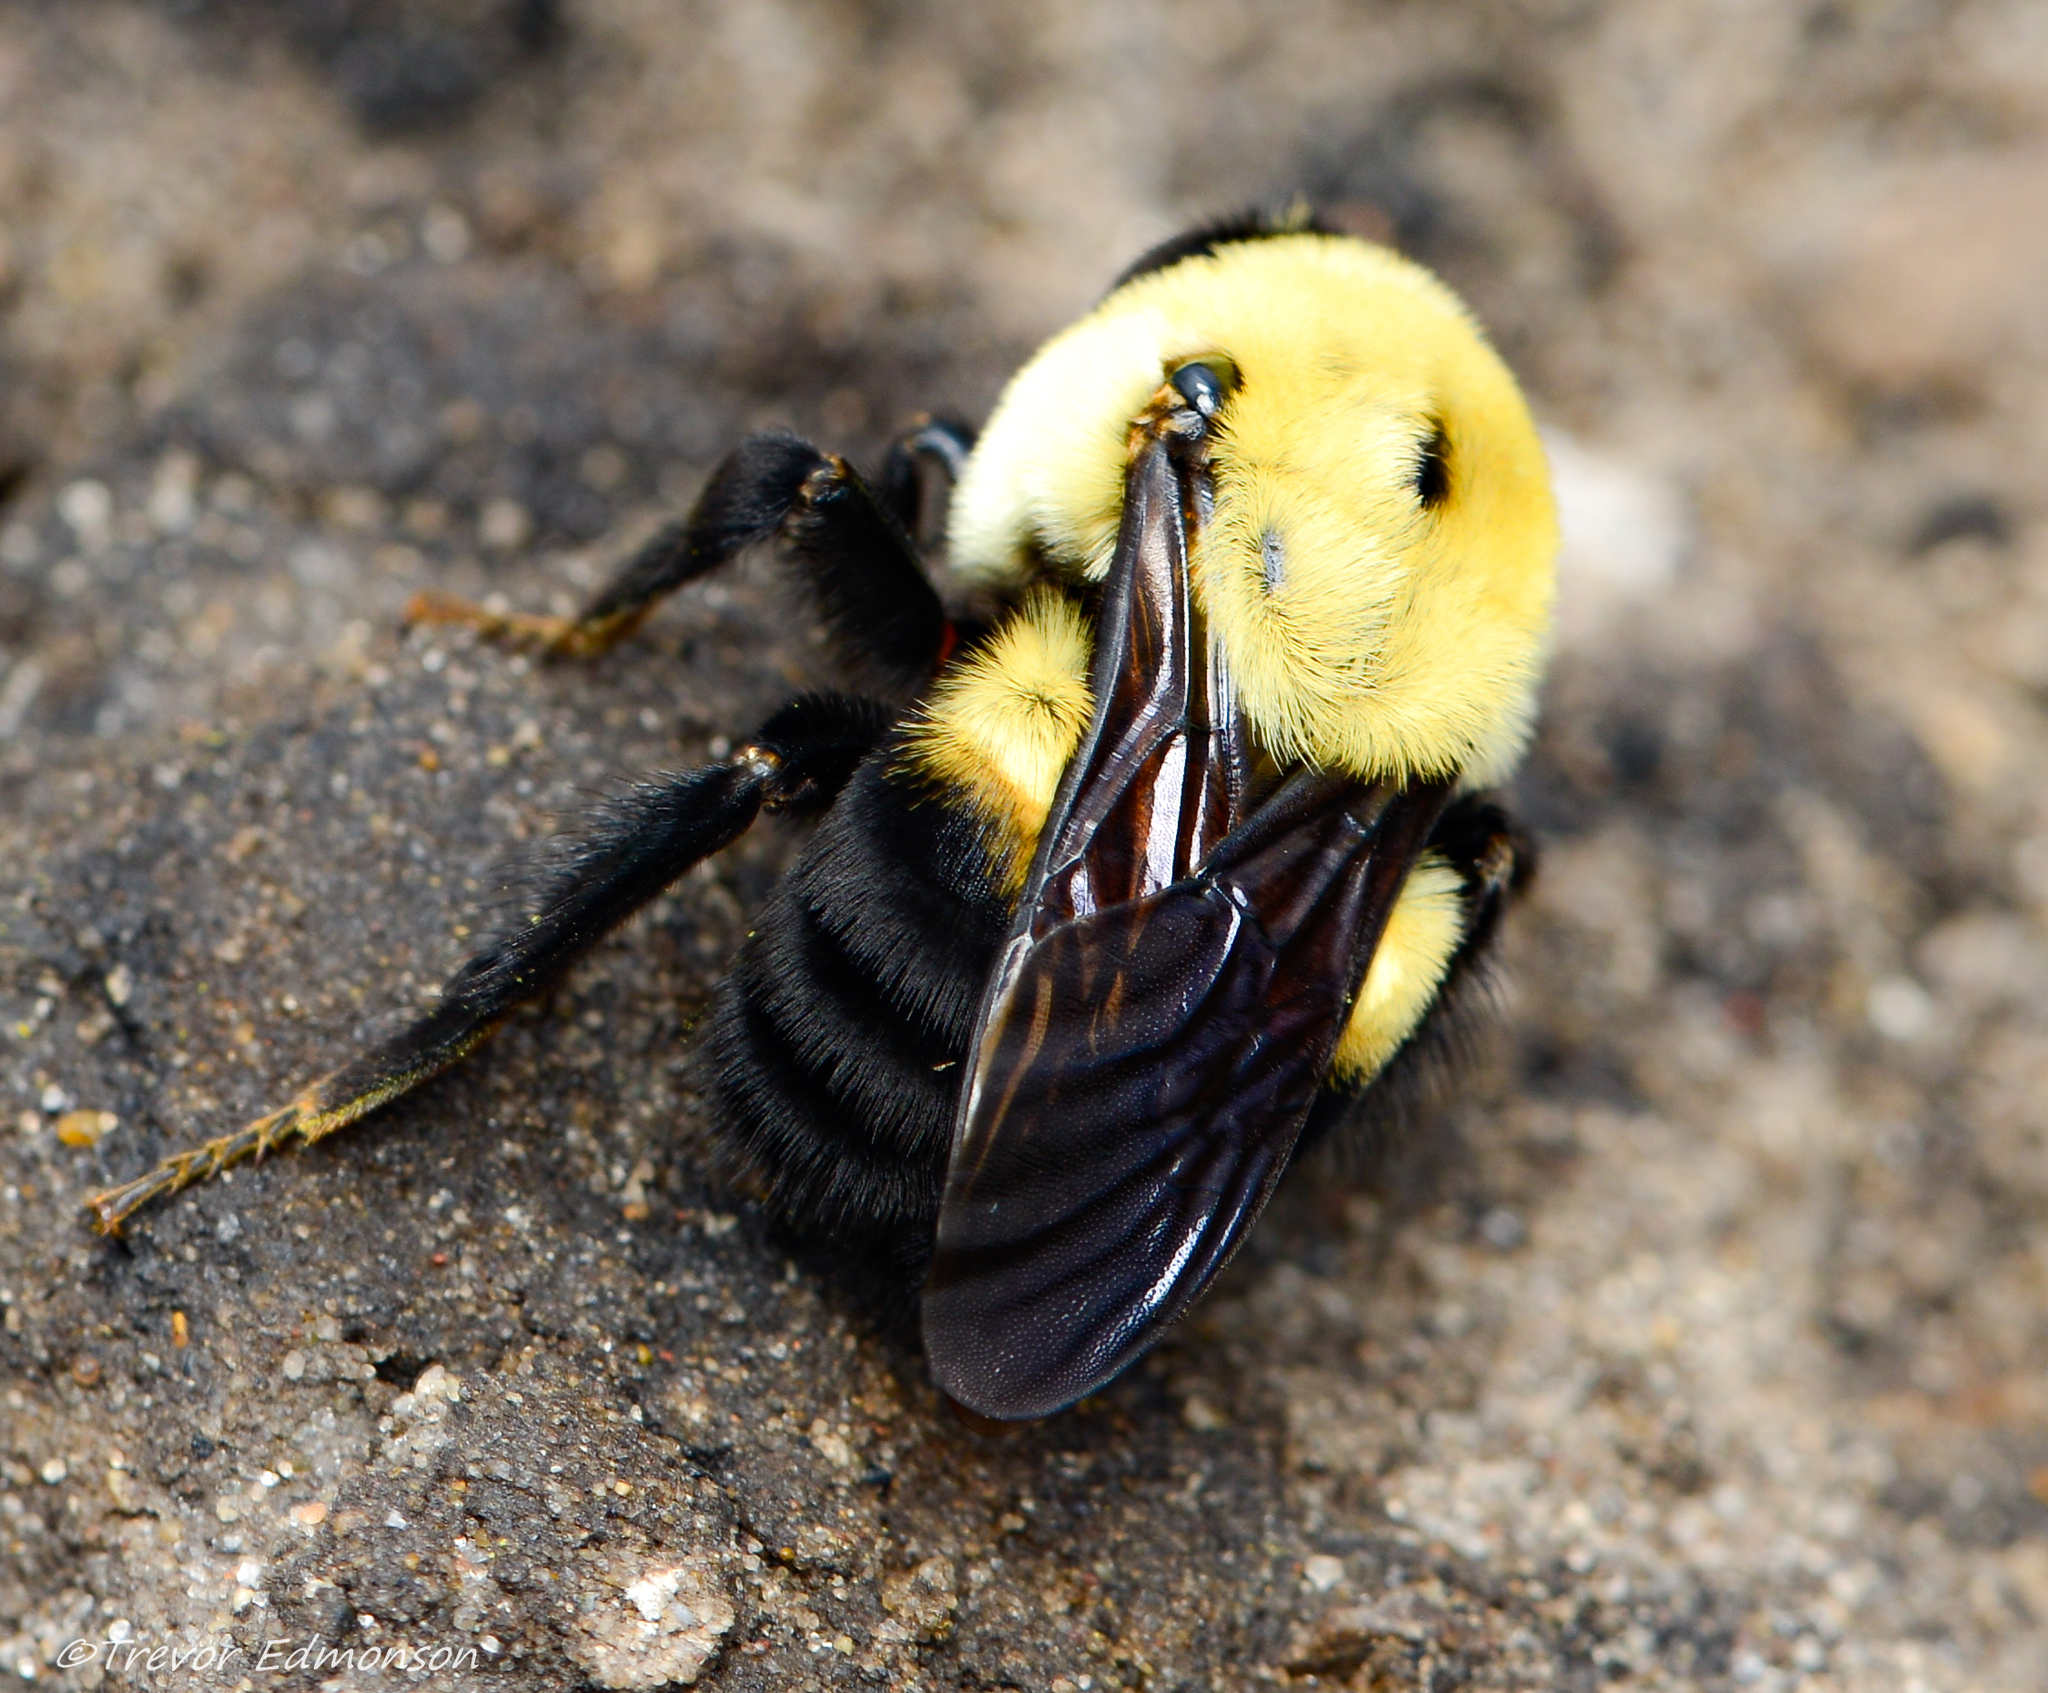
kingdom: Animalia
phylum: Arthropoda
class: Insecta
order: Hymenoptera
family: Apidae
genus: Bombus
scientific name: Bombus griseocollis
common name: Brown-belted bumble bee
